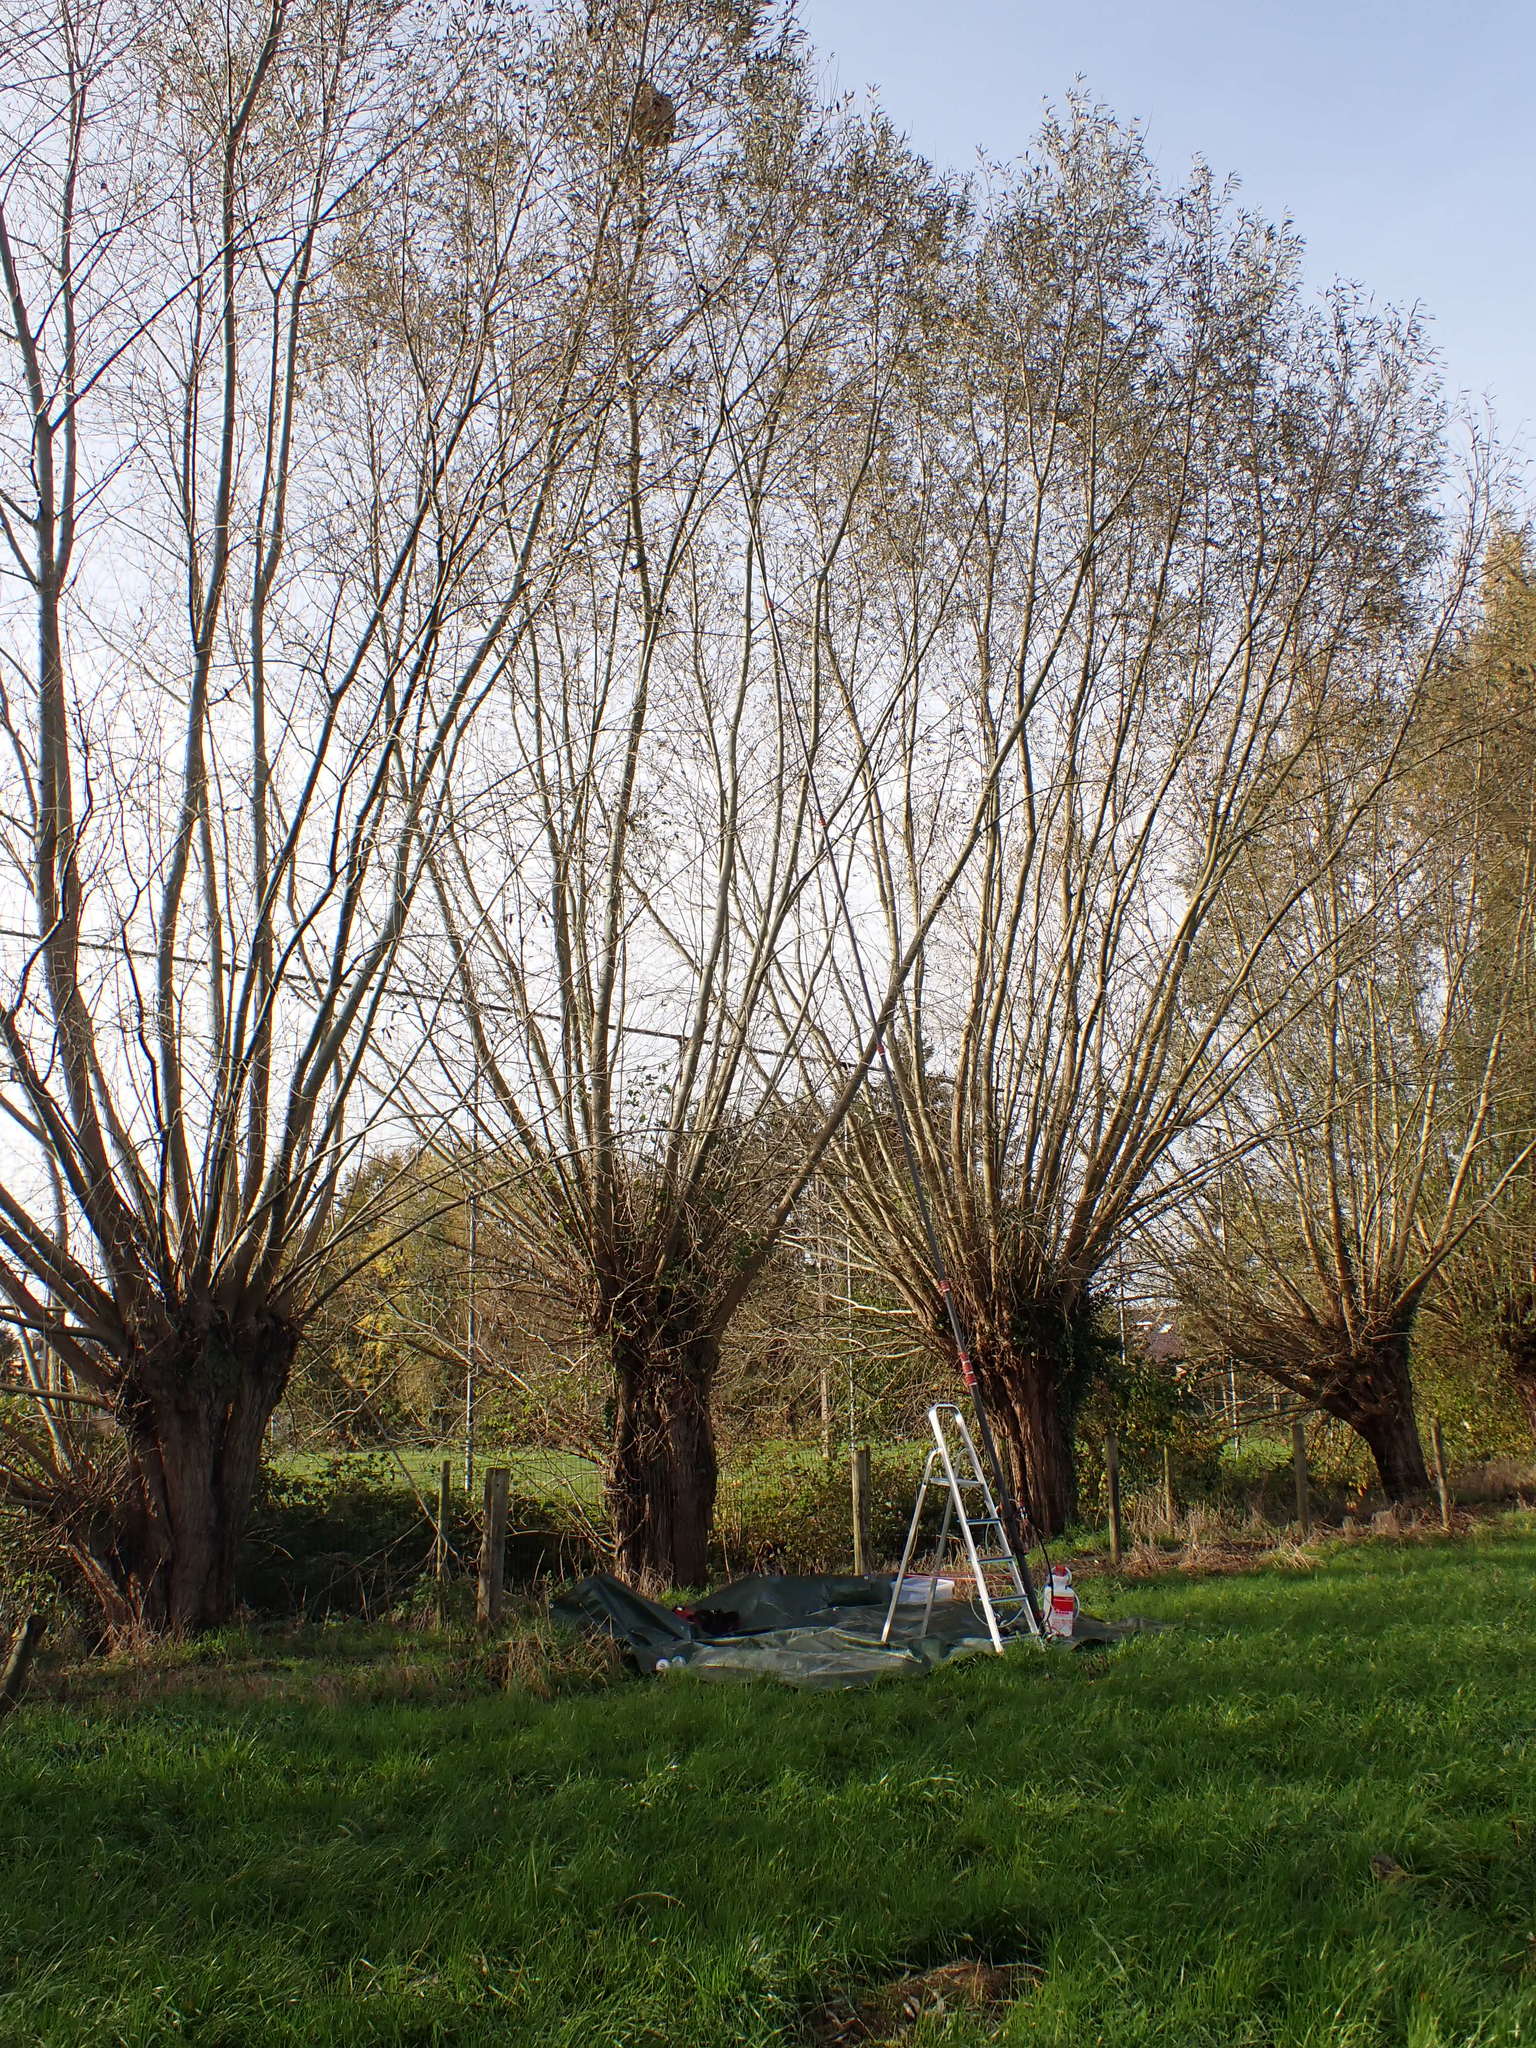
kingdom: Animalia
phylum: Arthropoda
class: Insecta
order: Hymenoptera
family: Vespidae
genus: Vespa
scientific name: Vespa velutina
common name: Asian hornet
